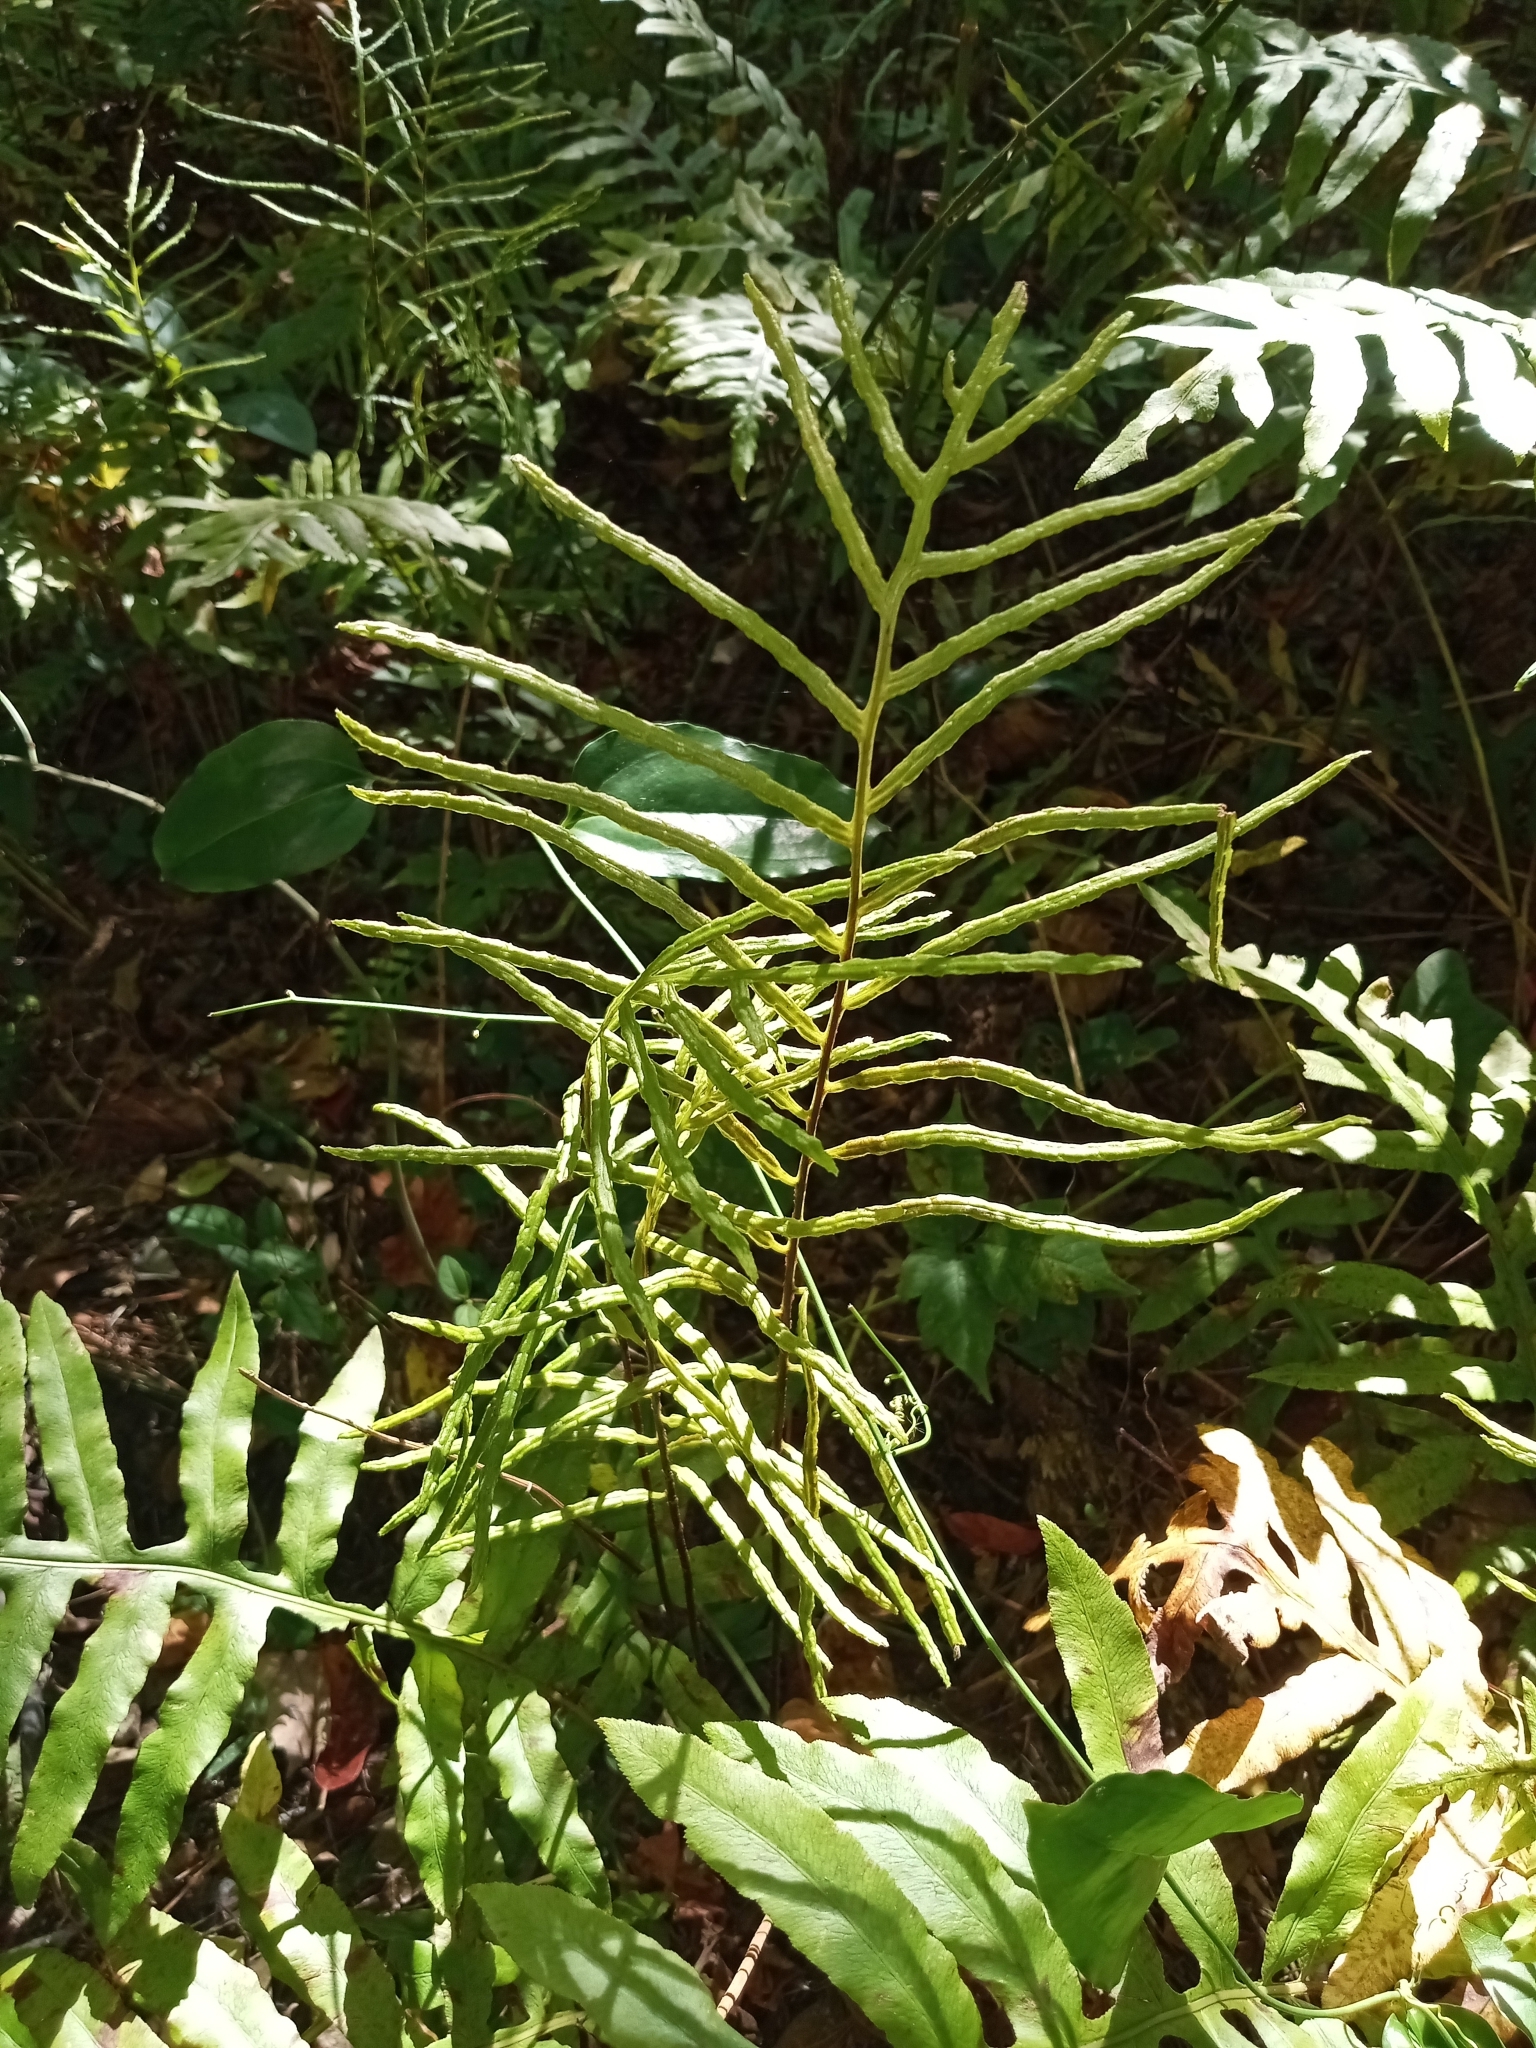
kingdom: Plantae
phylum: Tracheophyta
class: Polypodiopsida
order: Polypodiales
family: Blechnaceae
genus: Lorinseria
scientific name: Lorinseria areolata
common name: Dwarf chain fern
